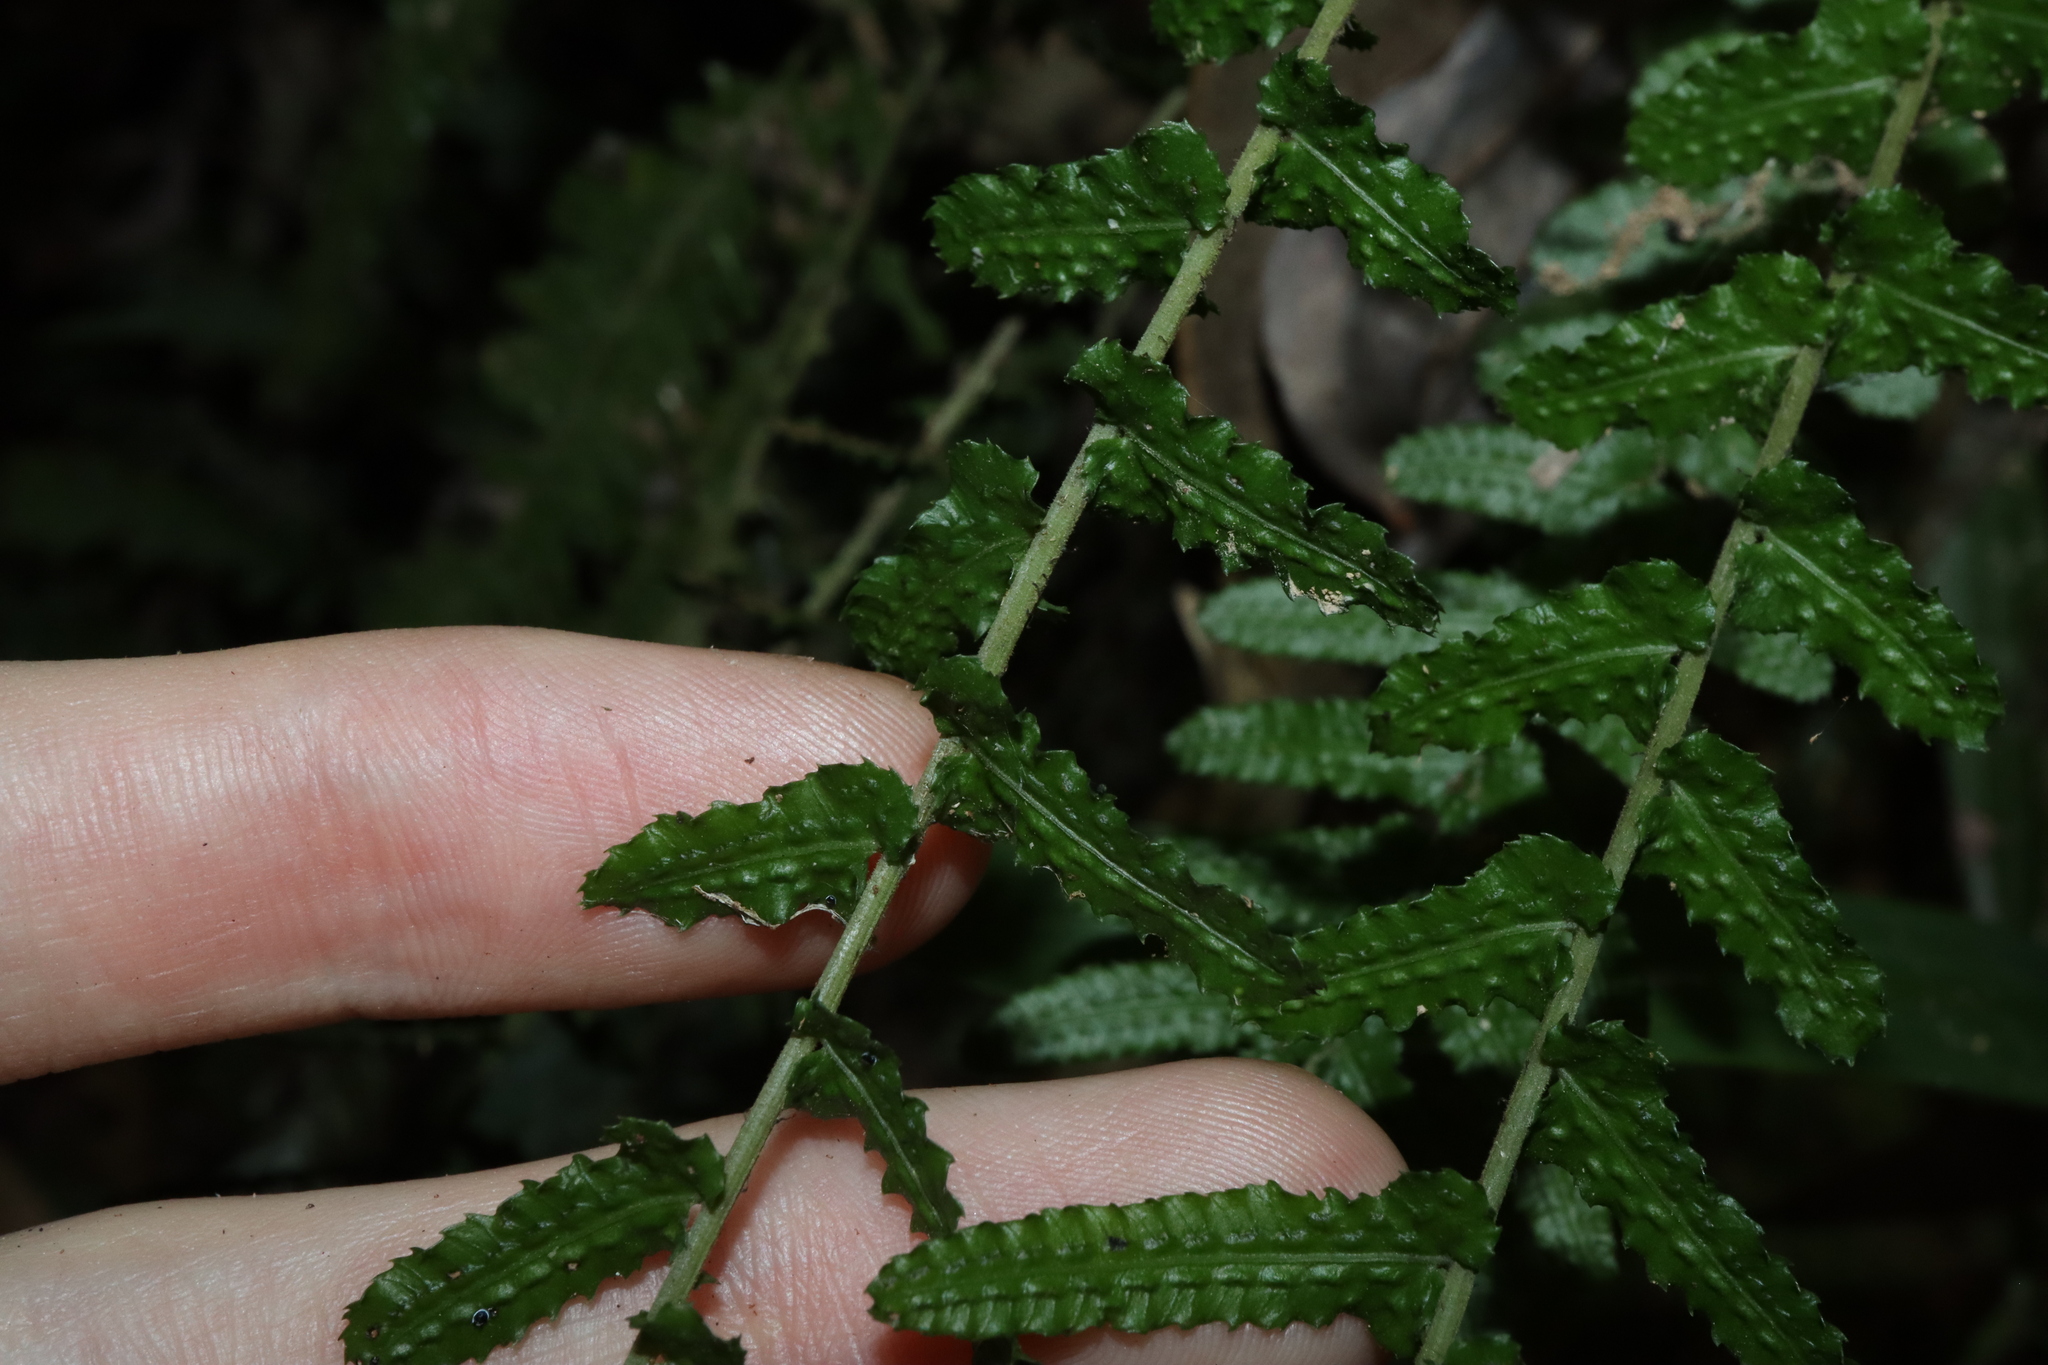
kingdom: Plantae
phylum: Tracheophyta
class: Polypodiopsida
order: Polypodiales
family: Blechnaceae
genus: Doodia
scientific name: Doodia media
